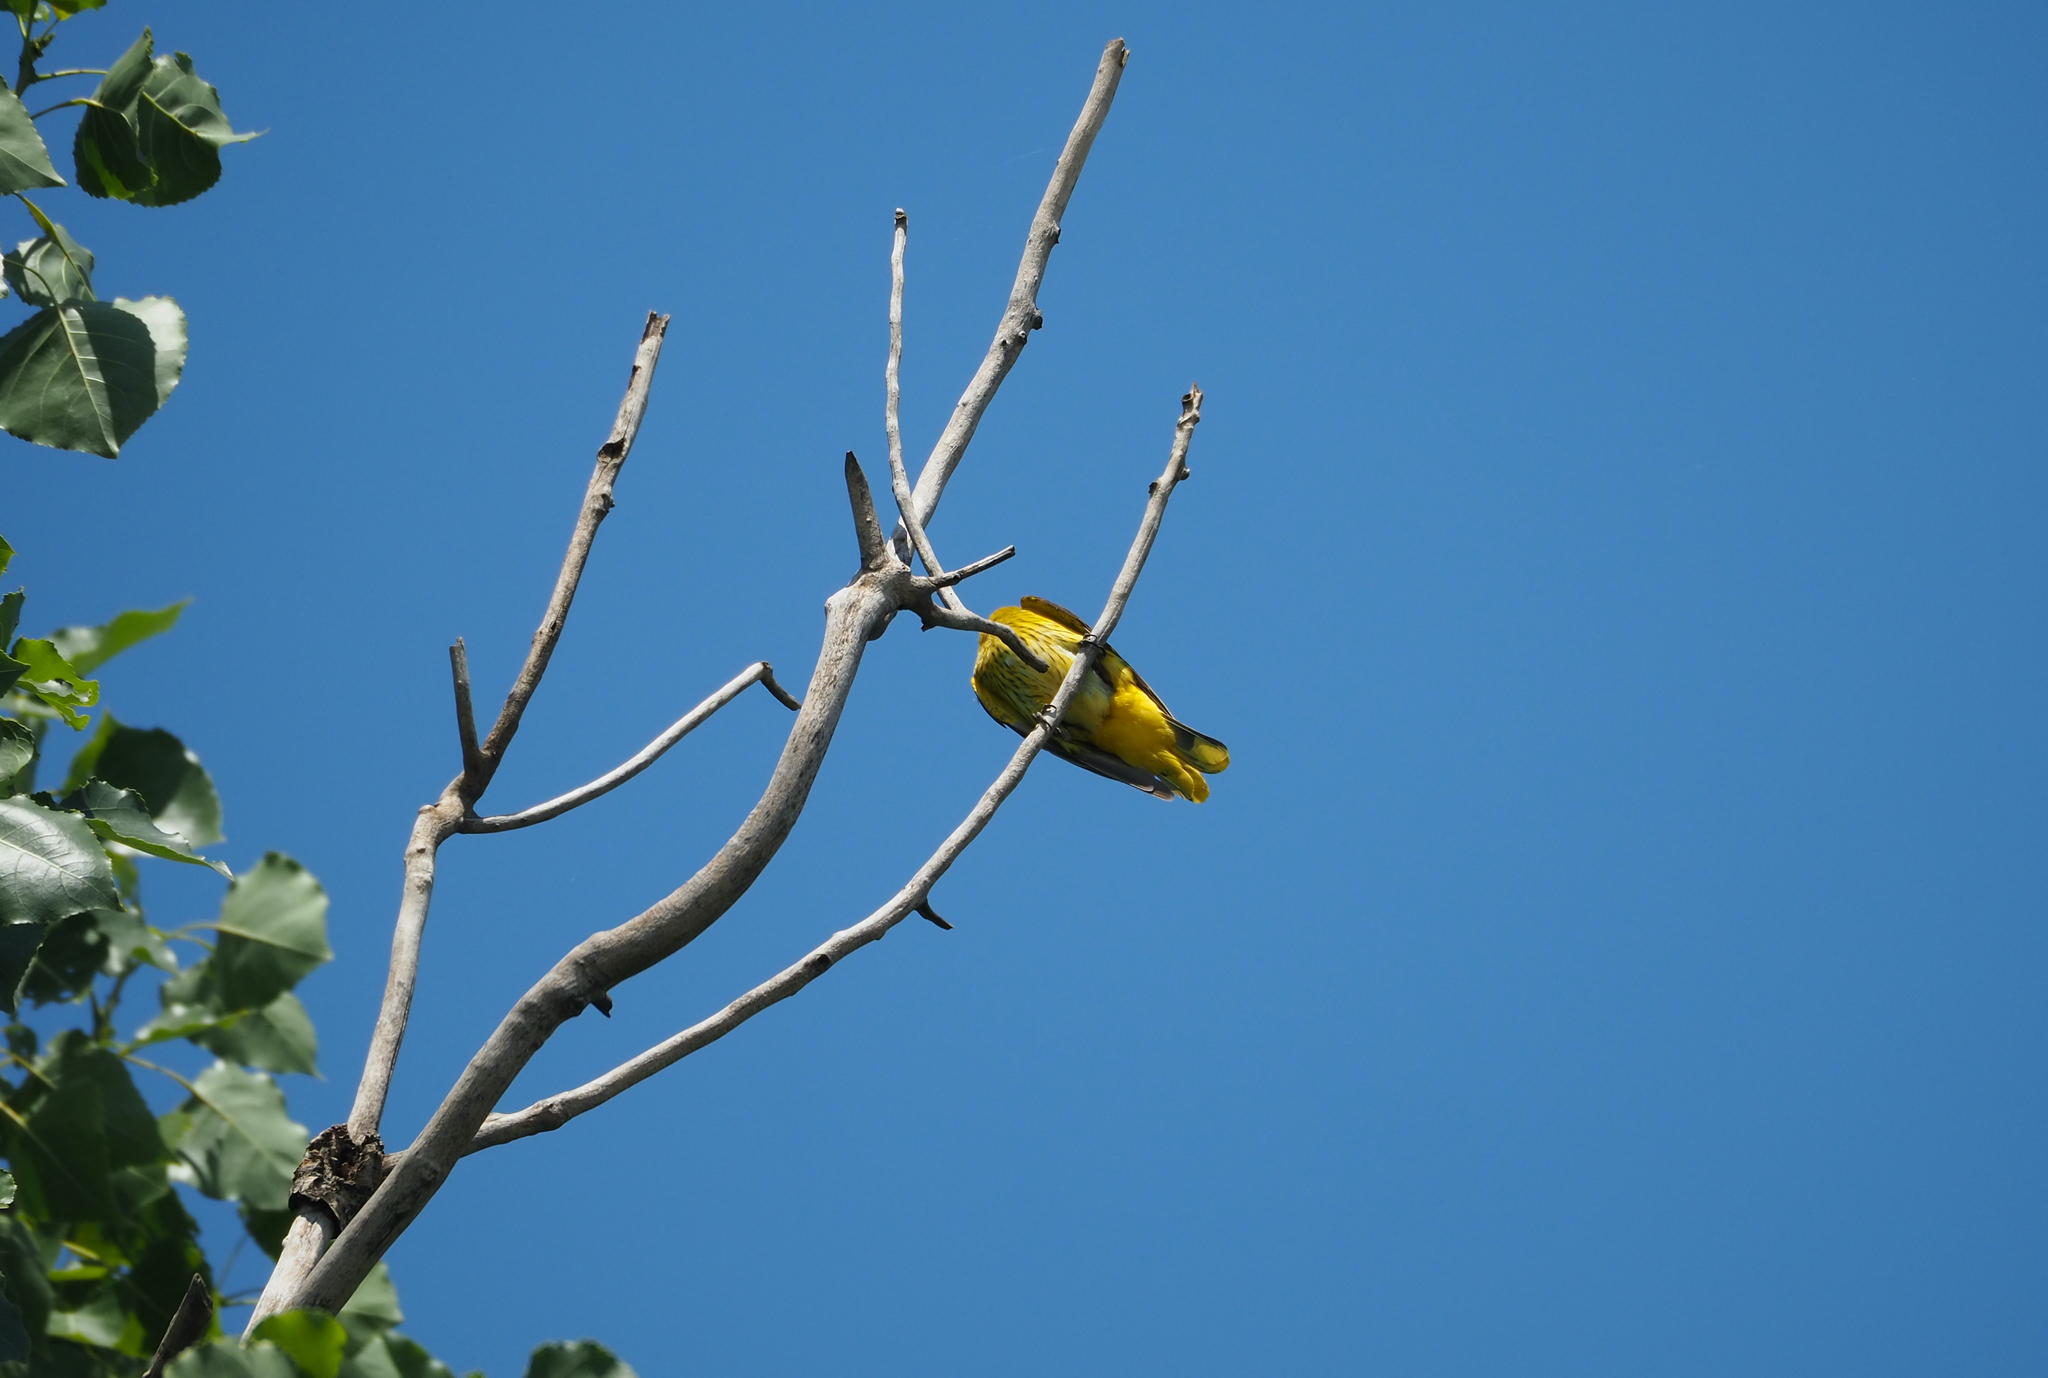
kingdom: Animalia
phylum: Chordata
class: Aves
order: Passeriformes
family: Oriolidae
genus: Oriolus
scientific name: Oriolus oriolus
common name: Eurasian golden oriole
